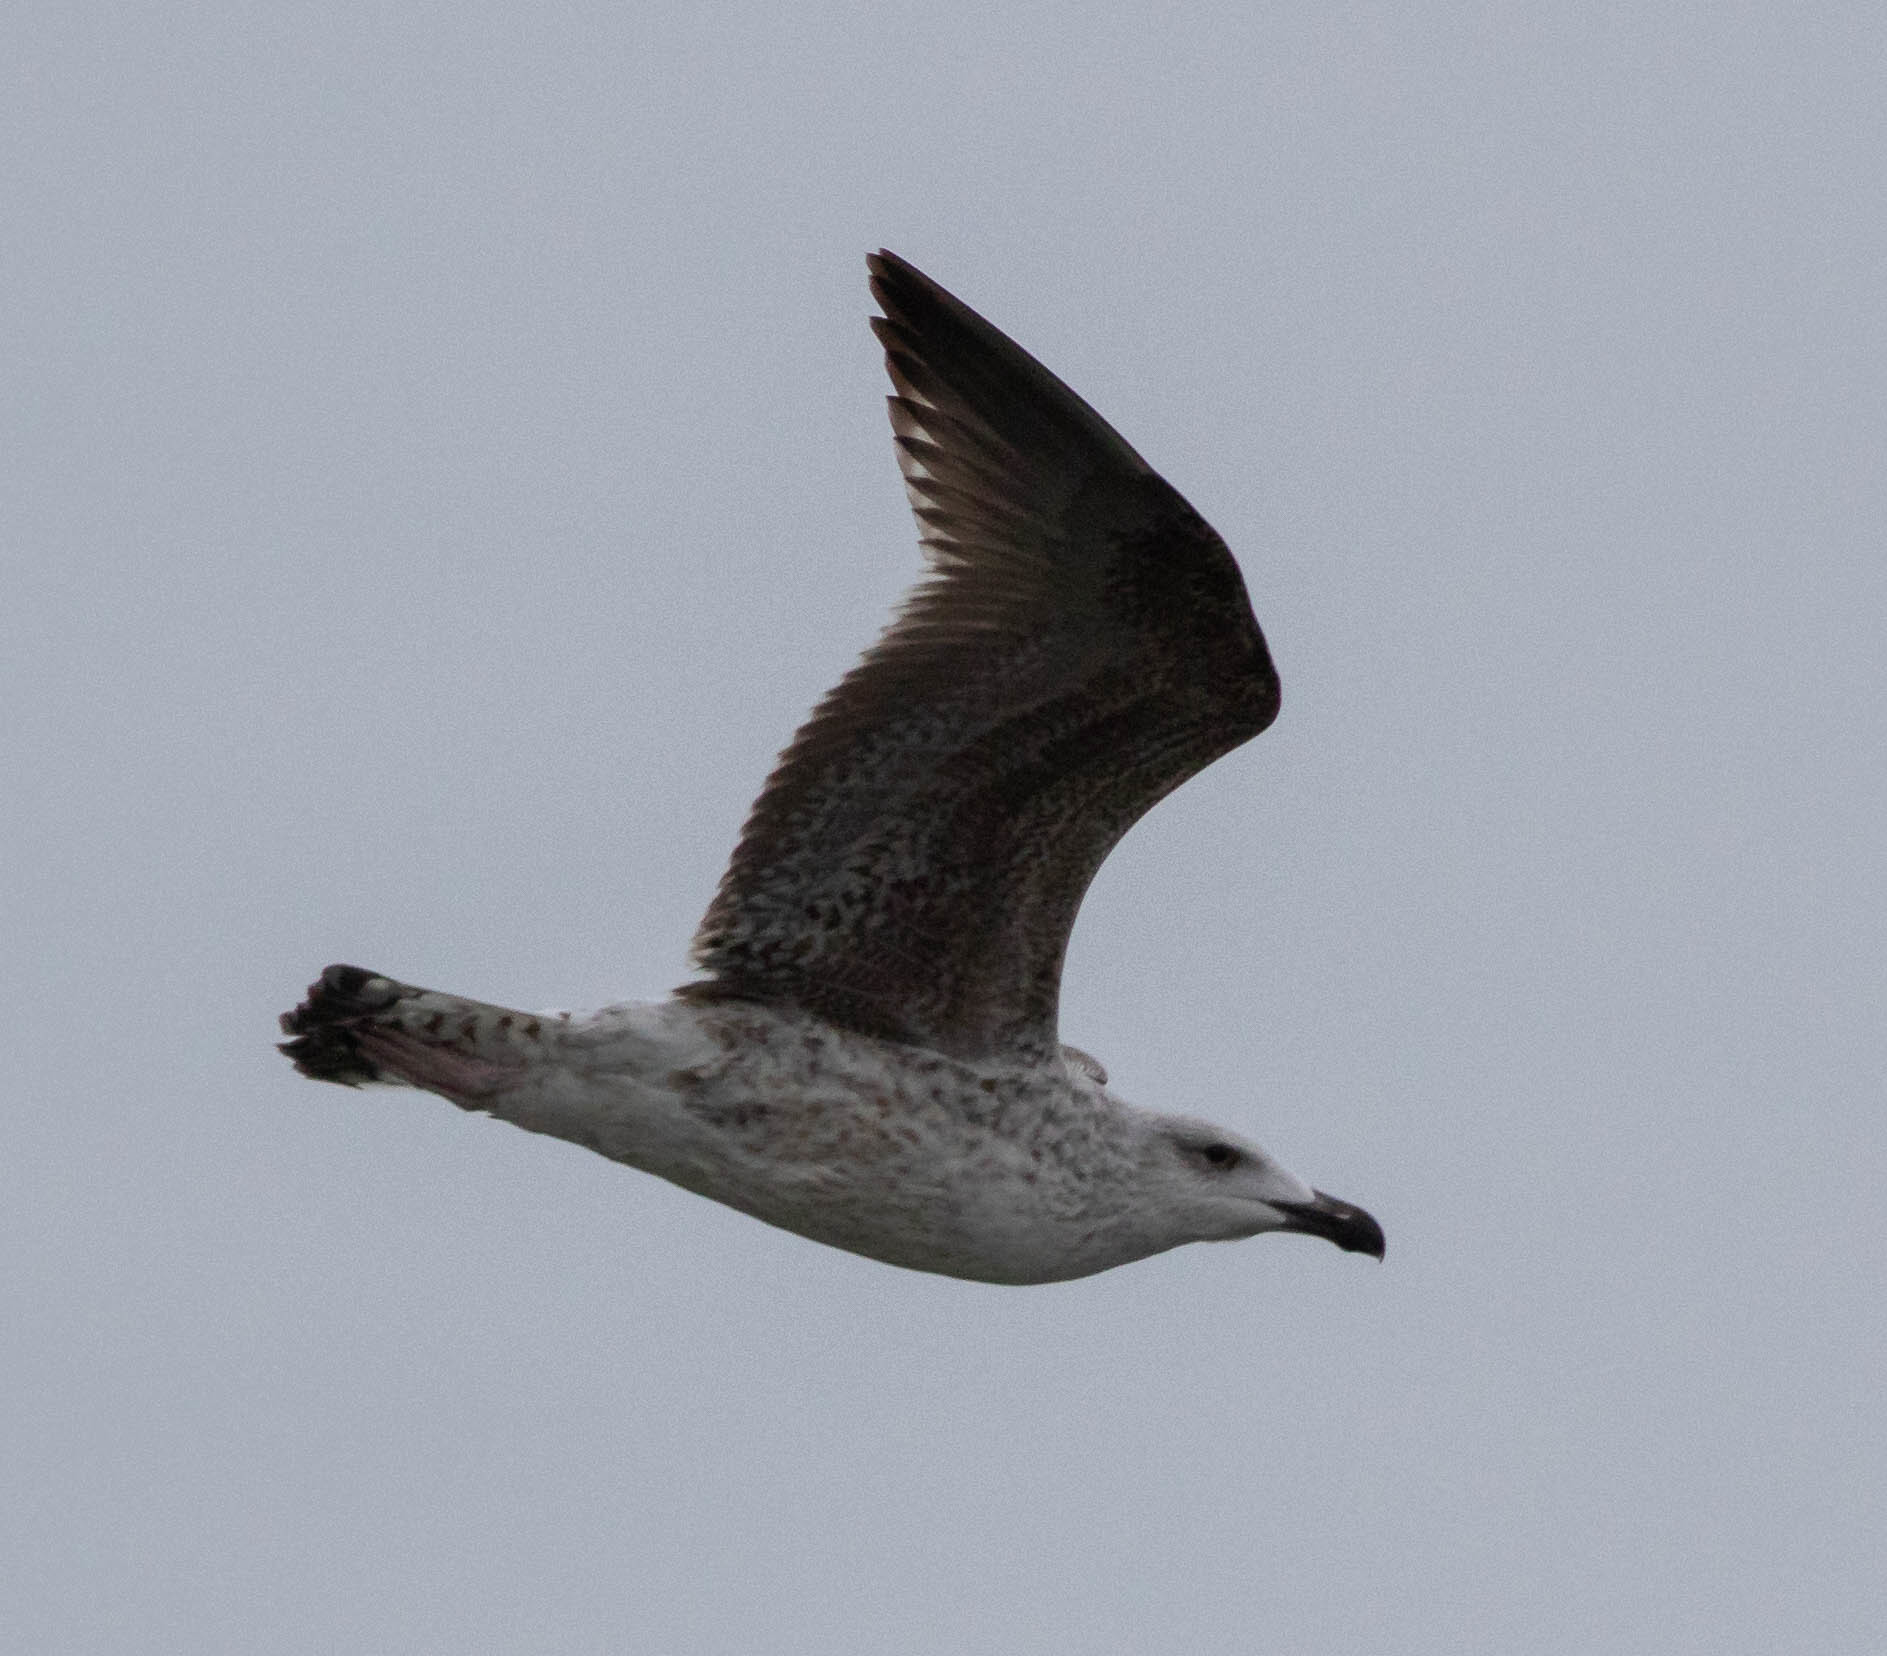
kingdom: Animalia
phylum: Chordata
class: Aves
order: Charadriiformes
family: Laridae
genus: Larus
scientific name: Larus marinus
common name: Great black-backed gull
